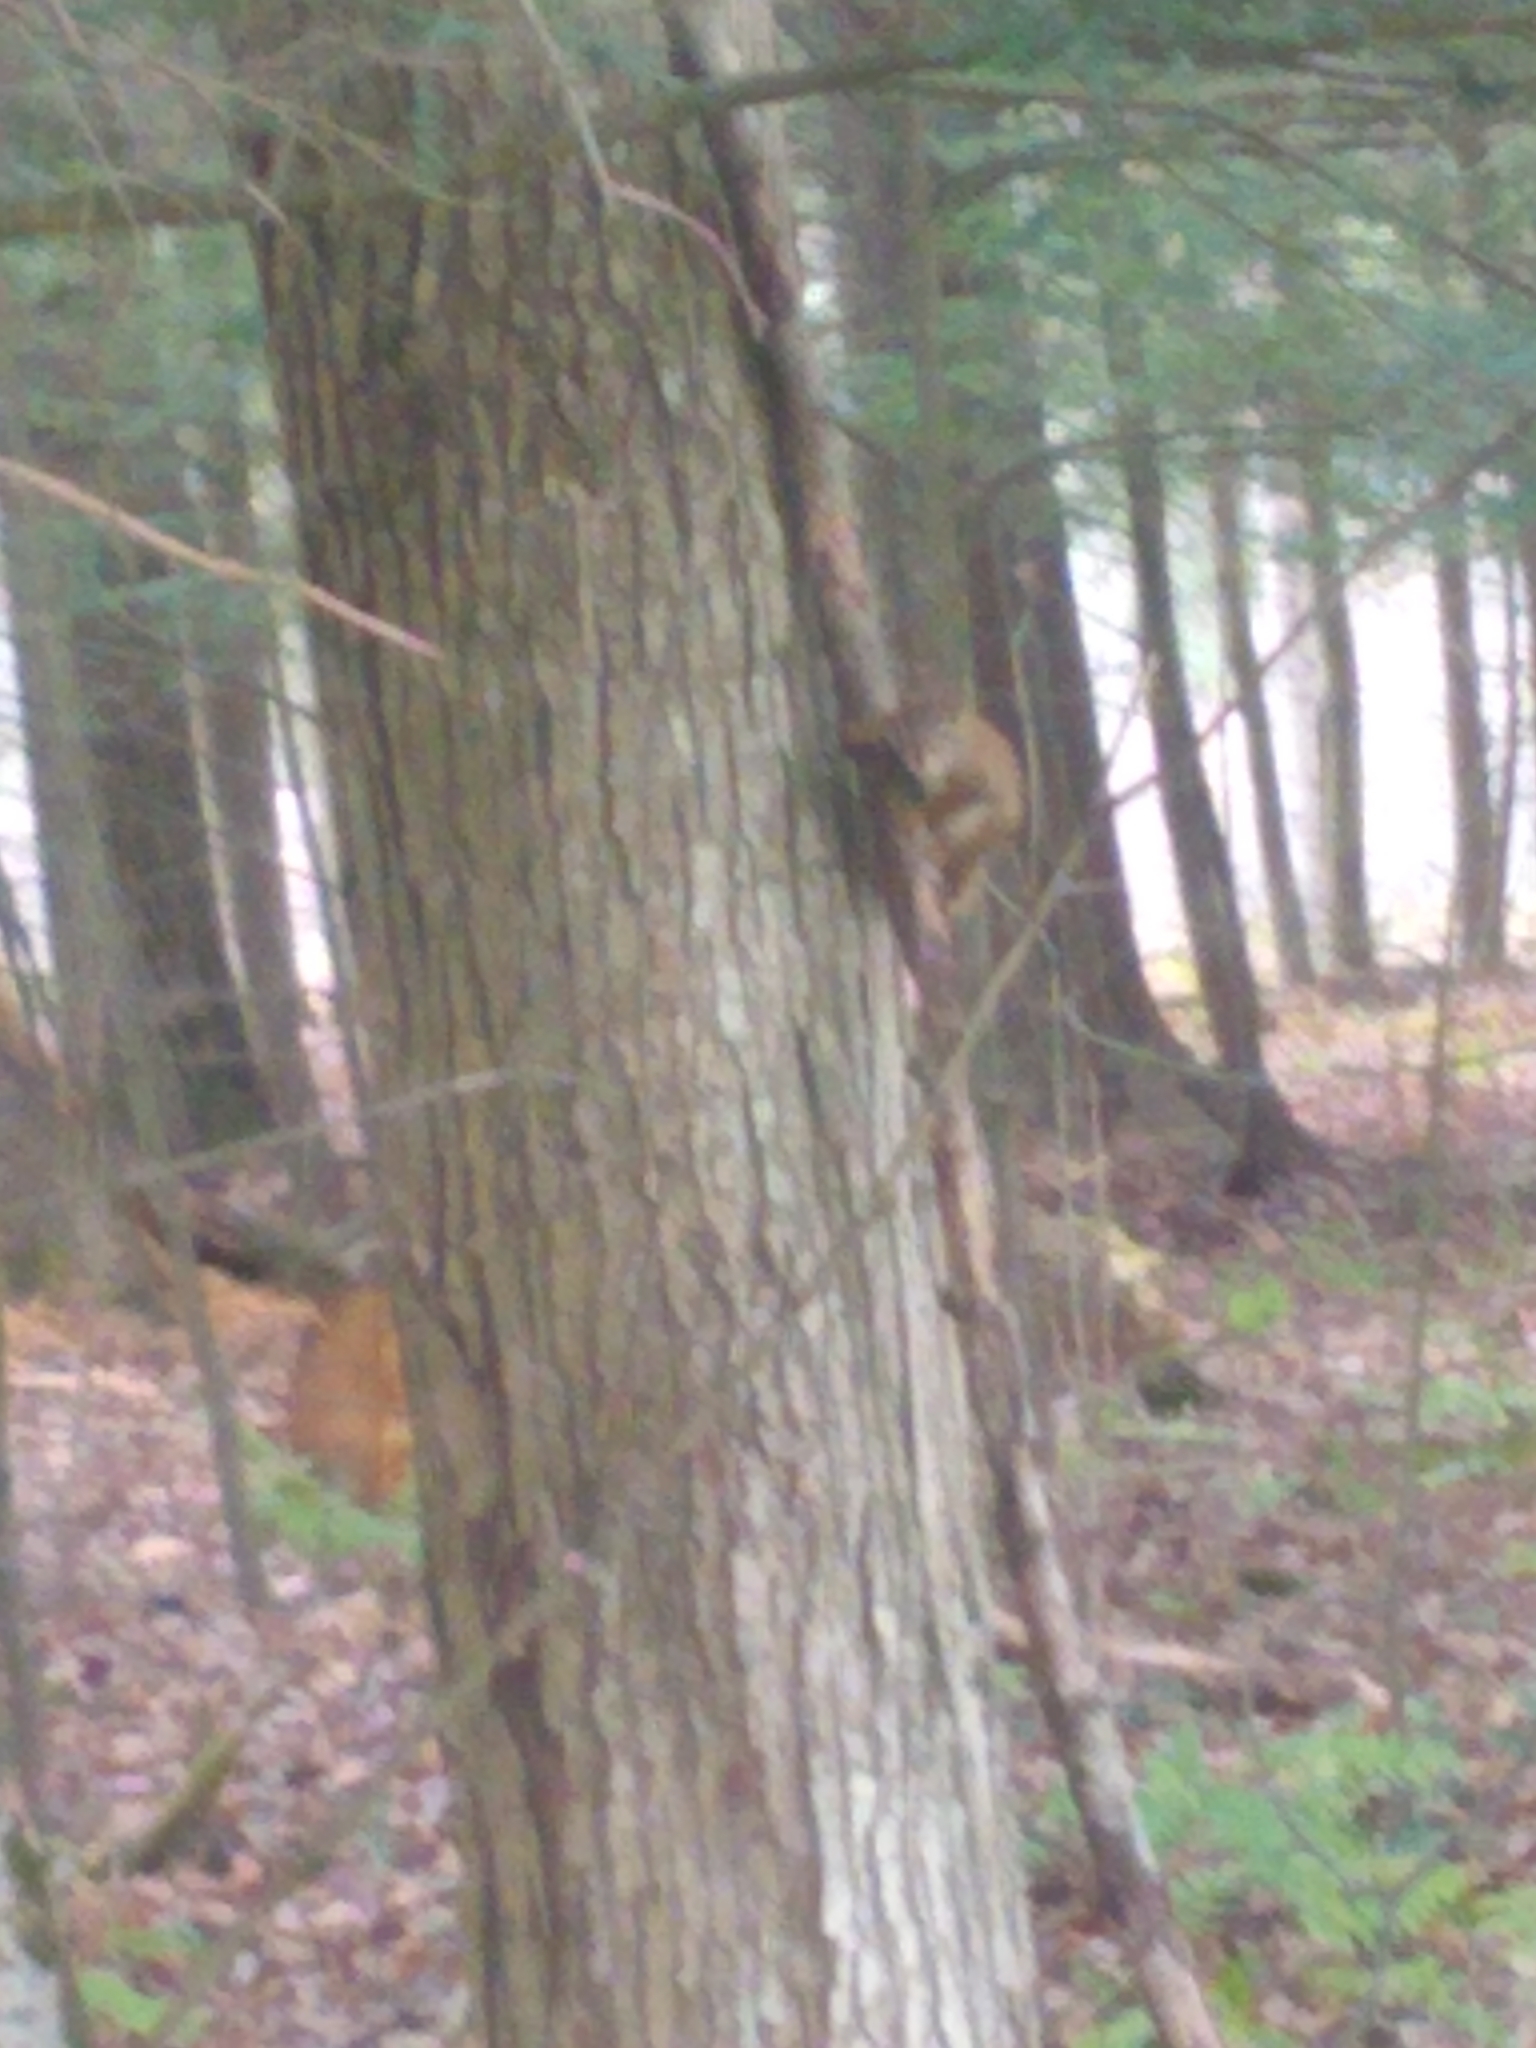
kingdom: Animalia
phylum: Chordata
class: Mammalia
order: Rodentia
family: Sciuridae
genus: Tamiasciurus
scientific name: Tamiasciurus hudsonicus
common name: Red squirrel
